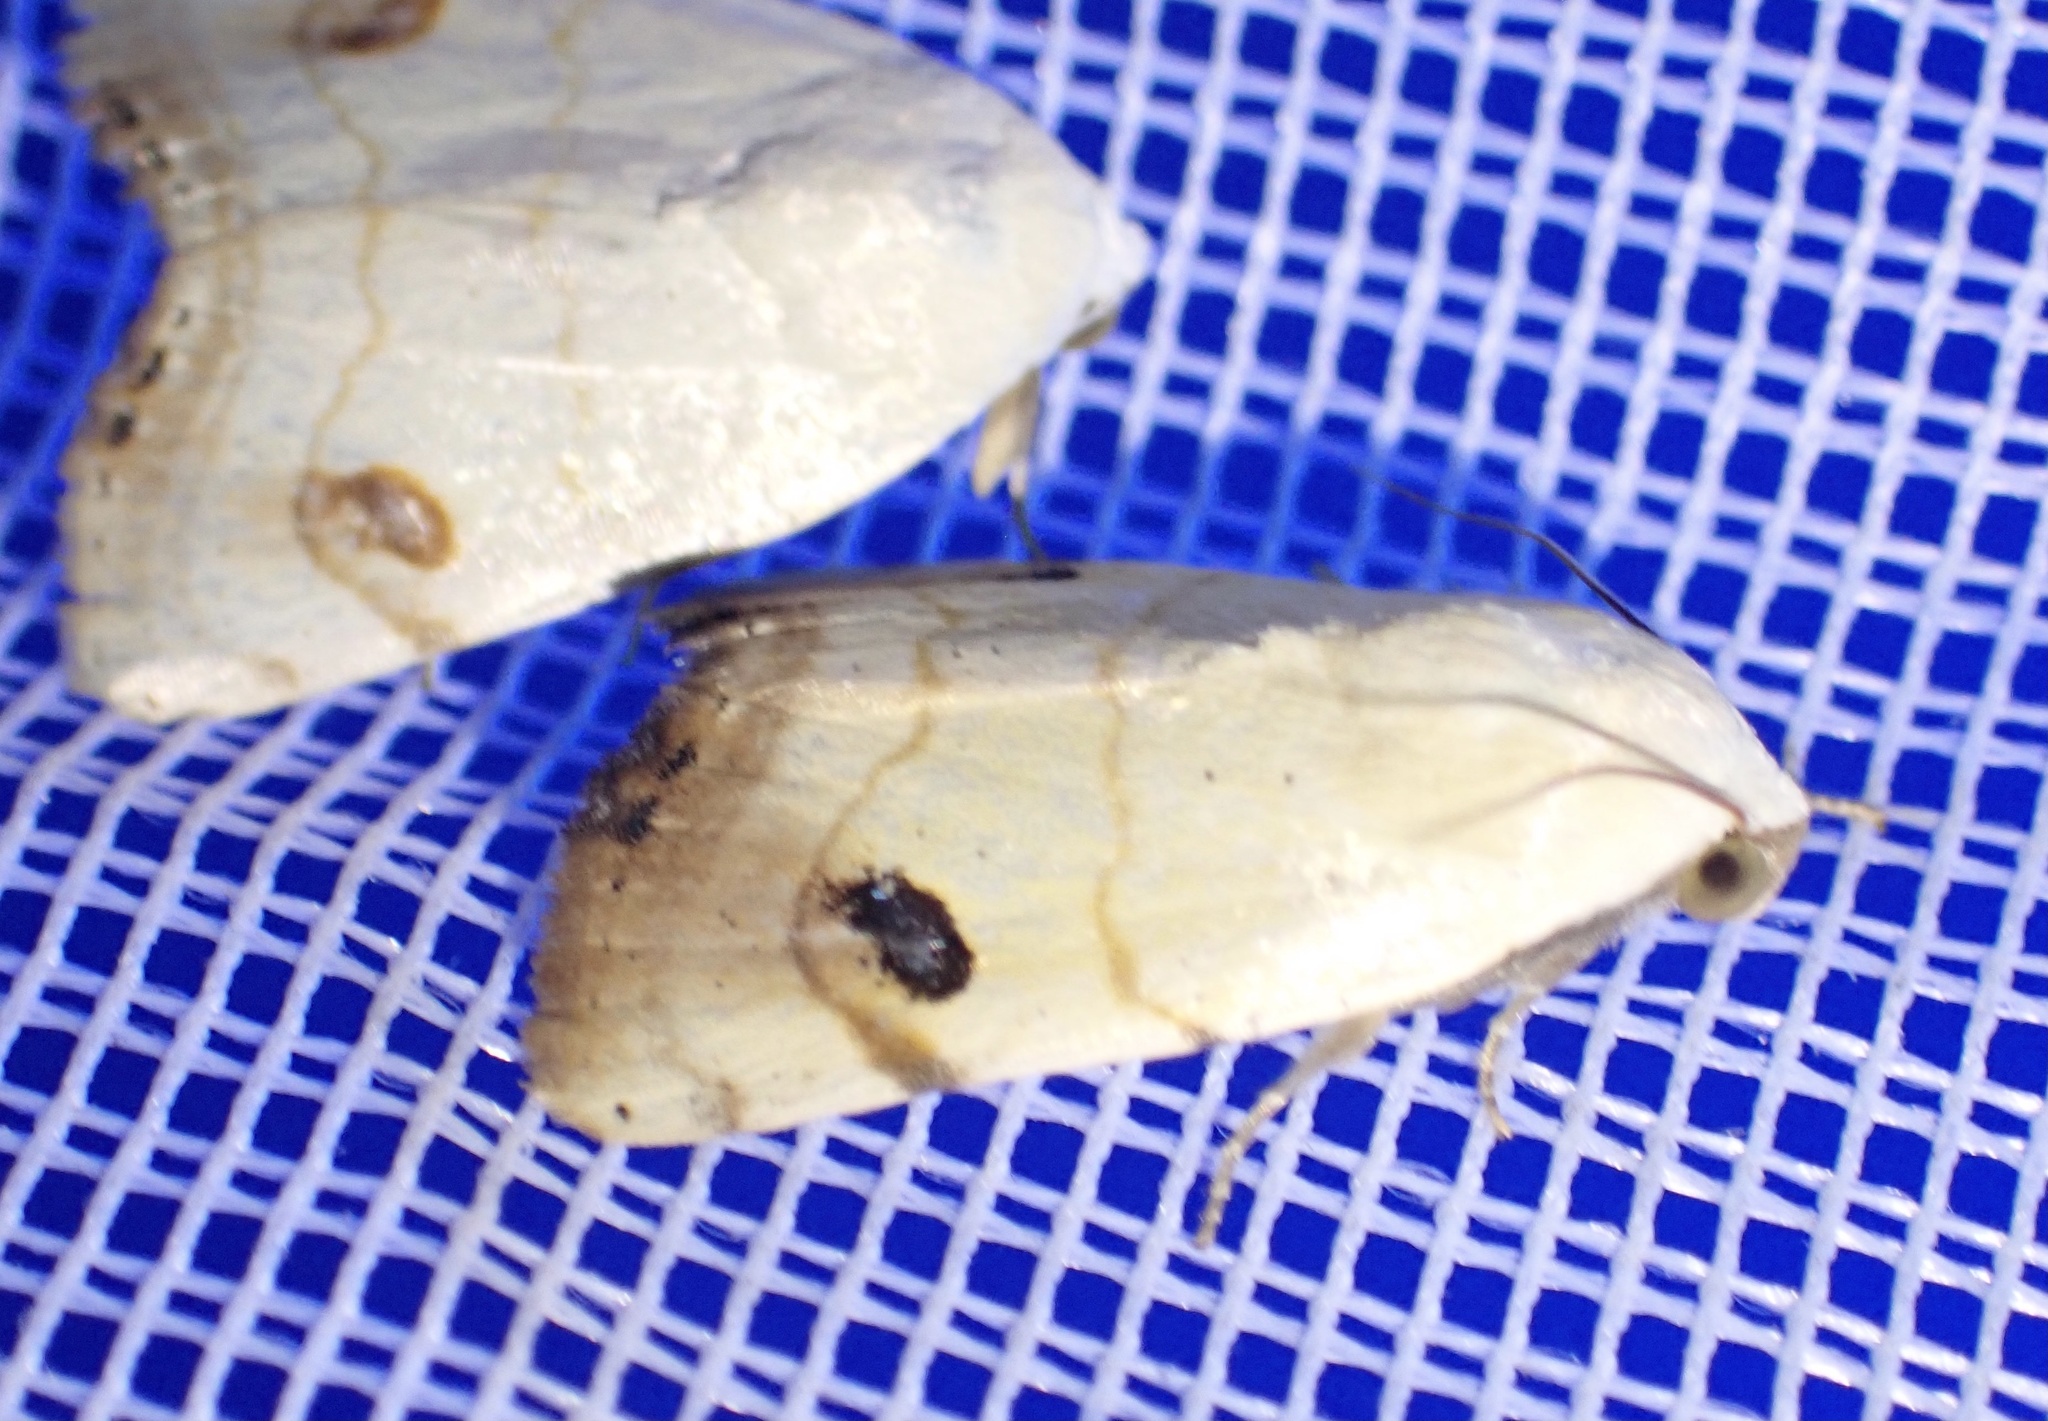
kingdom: Animalia
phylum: Arthropoda
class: Insecta
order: Lepidoptera
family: Nolidae
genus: Xanthodes
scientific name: Xanthodes albago
